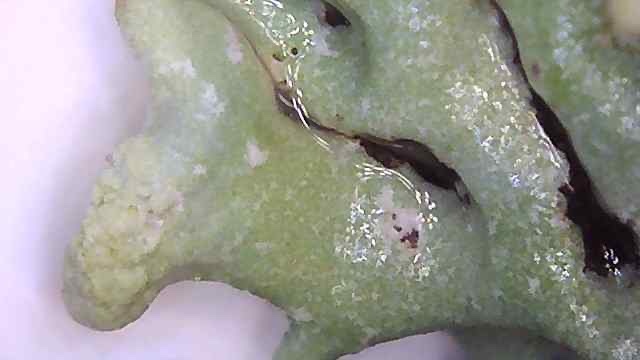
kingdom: Fungi
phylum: Ascomycota
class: Lecanoromycetes
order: Lecanorales
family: Parmeliaceae
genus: Hypogymnia
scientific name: Hypogymnia tubulosa
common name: Powder-headed tube lichen
